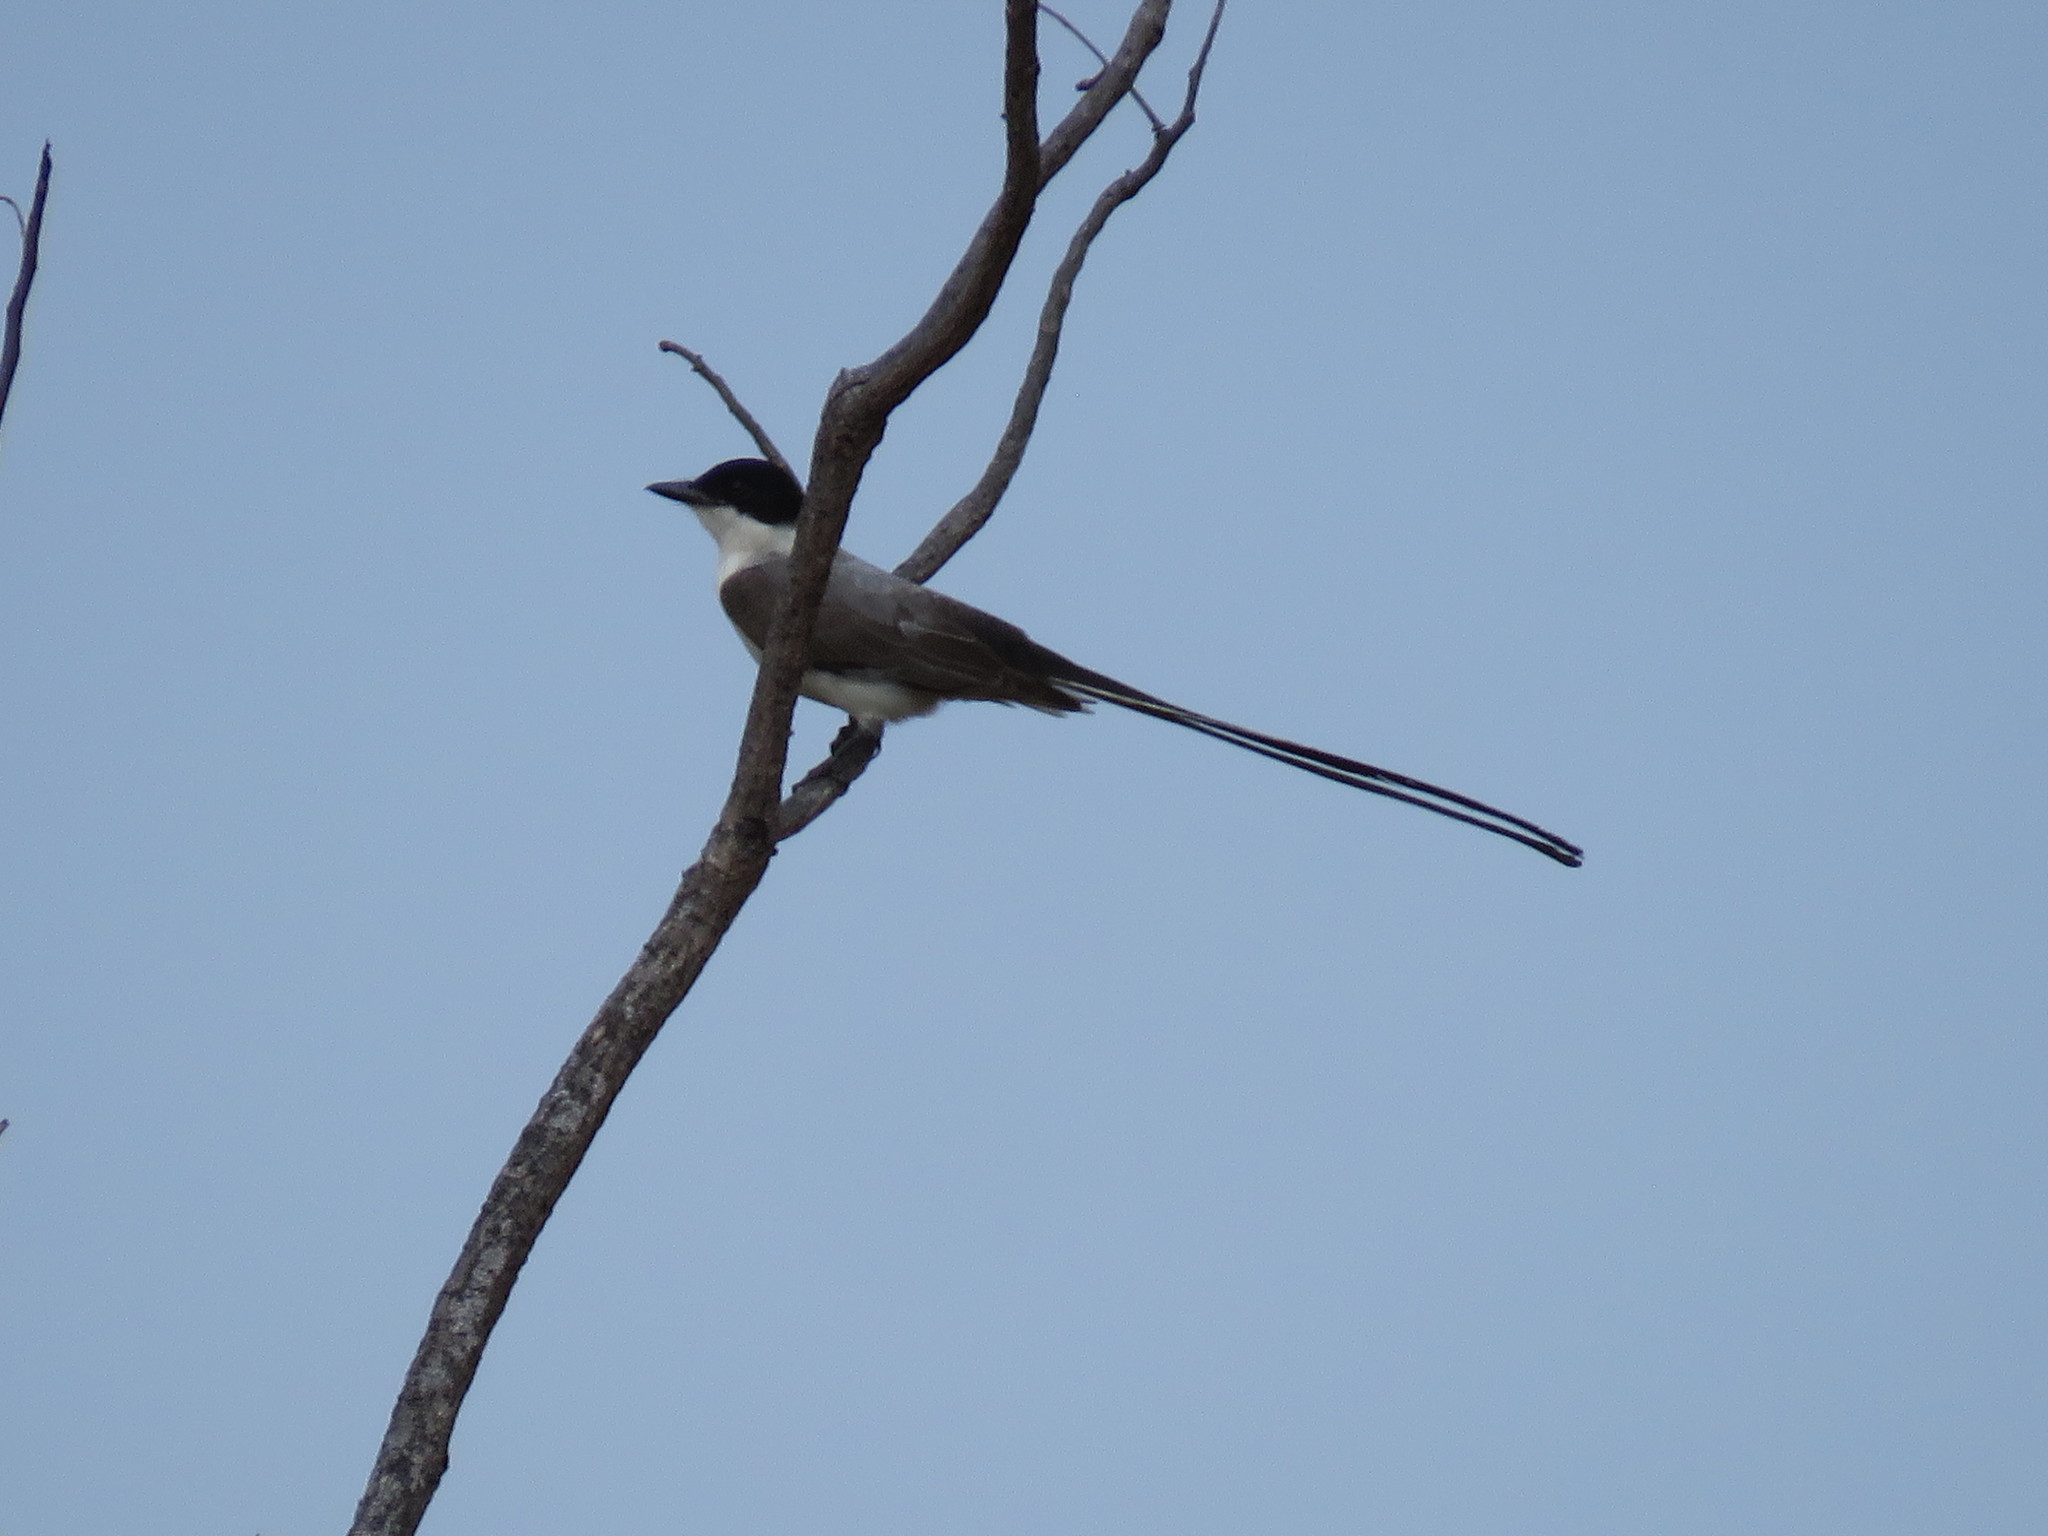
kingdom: Animalia
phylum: Chordata
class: Aves
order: Passeriformes
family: Tyrannidae
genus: Tyrannus
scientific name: Tyrannus savana
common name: Fork-tailed flycatcher
